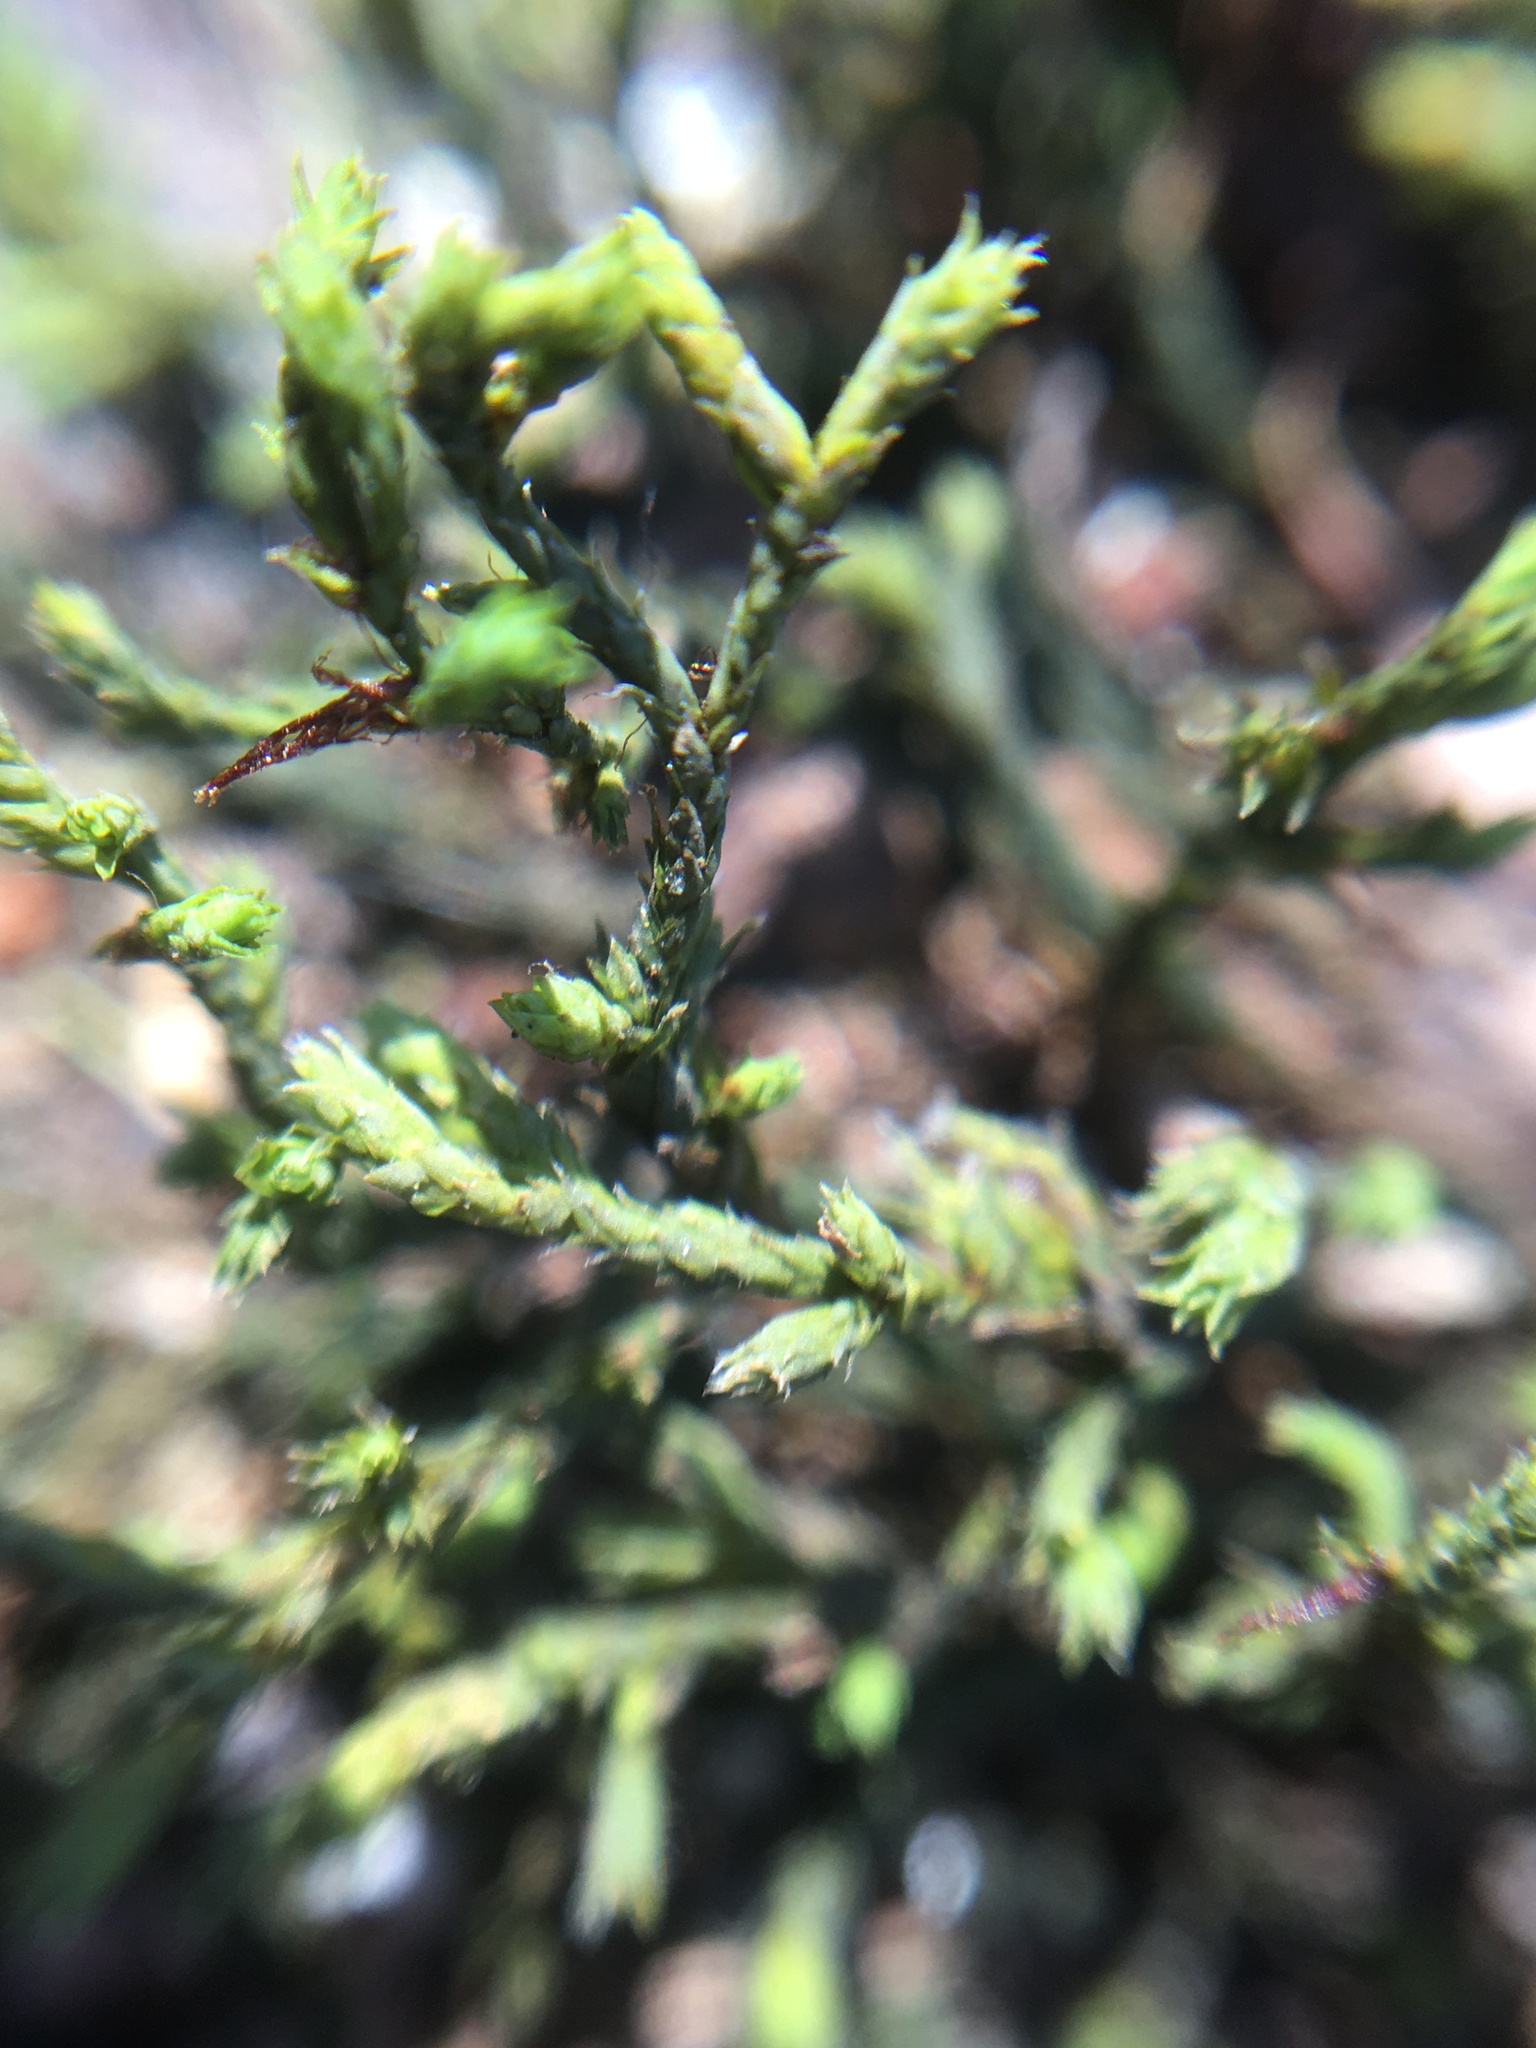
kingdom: Plantae
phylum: Bryophyta
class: Bryopsida
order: Hedwigiales
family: Hedwigiaceae
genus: Hedwigia
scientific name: Hedwigia ciliata
